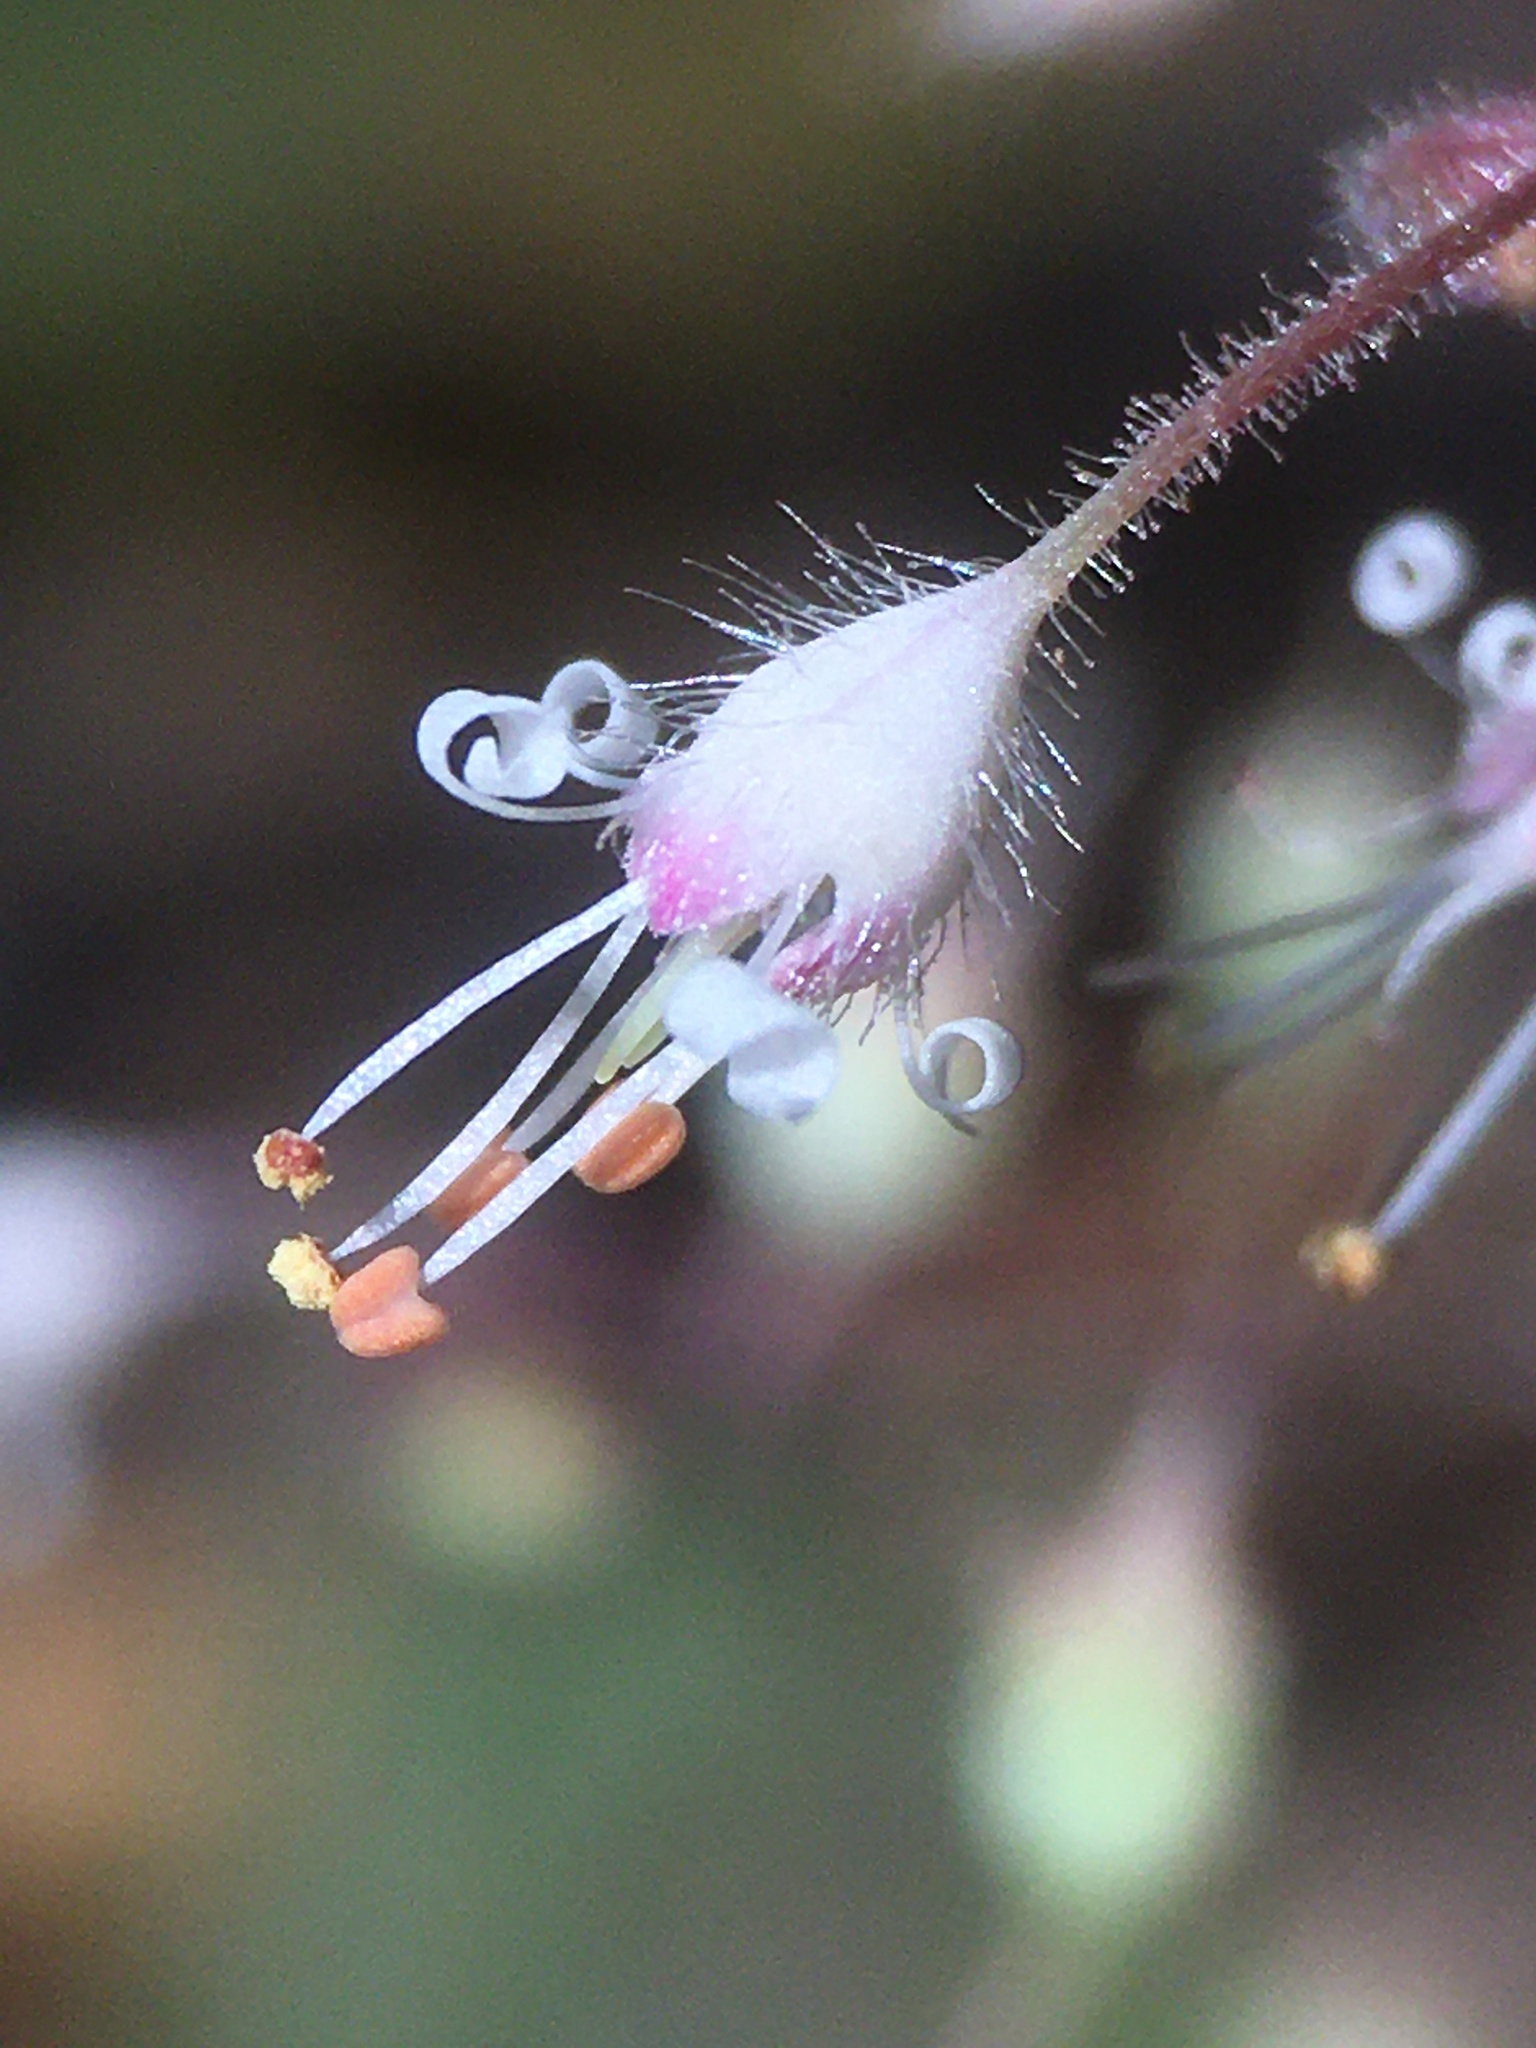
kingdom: Plantae
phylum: Tracheophyta
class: Magnoliopsida
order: Saxifragales
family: Saxifragaceae
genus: Heuchera
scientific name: Heuchera parviflora
